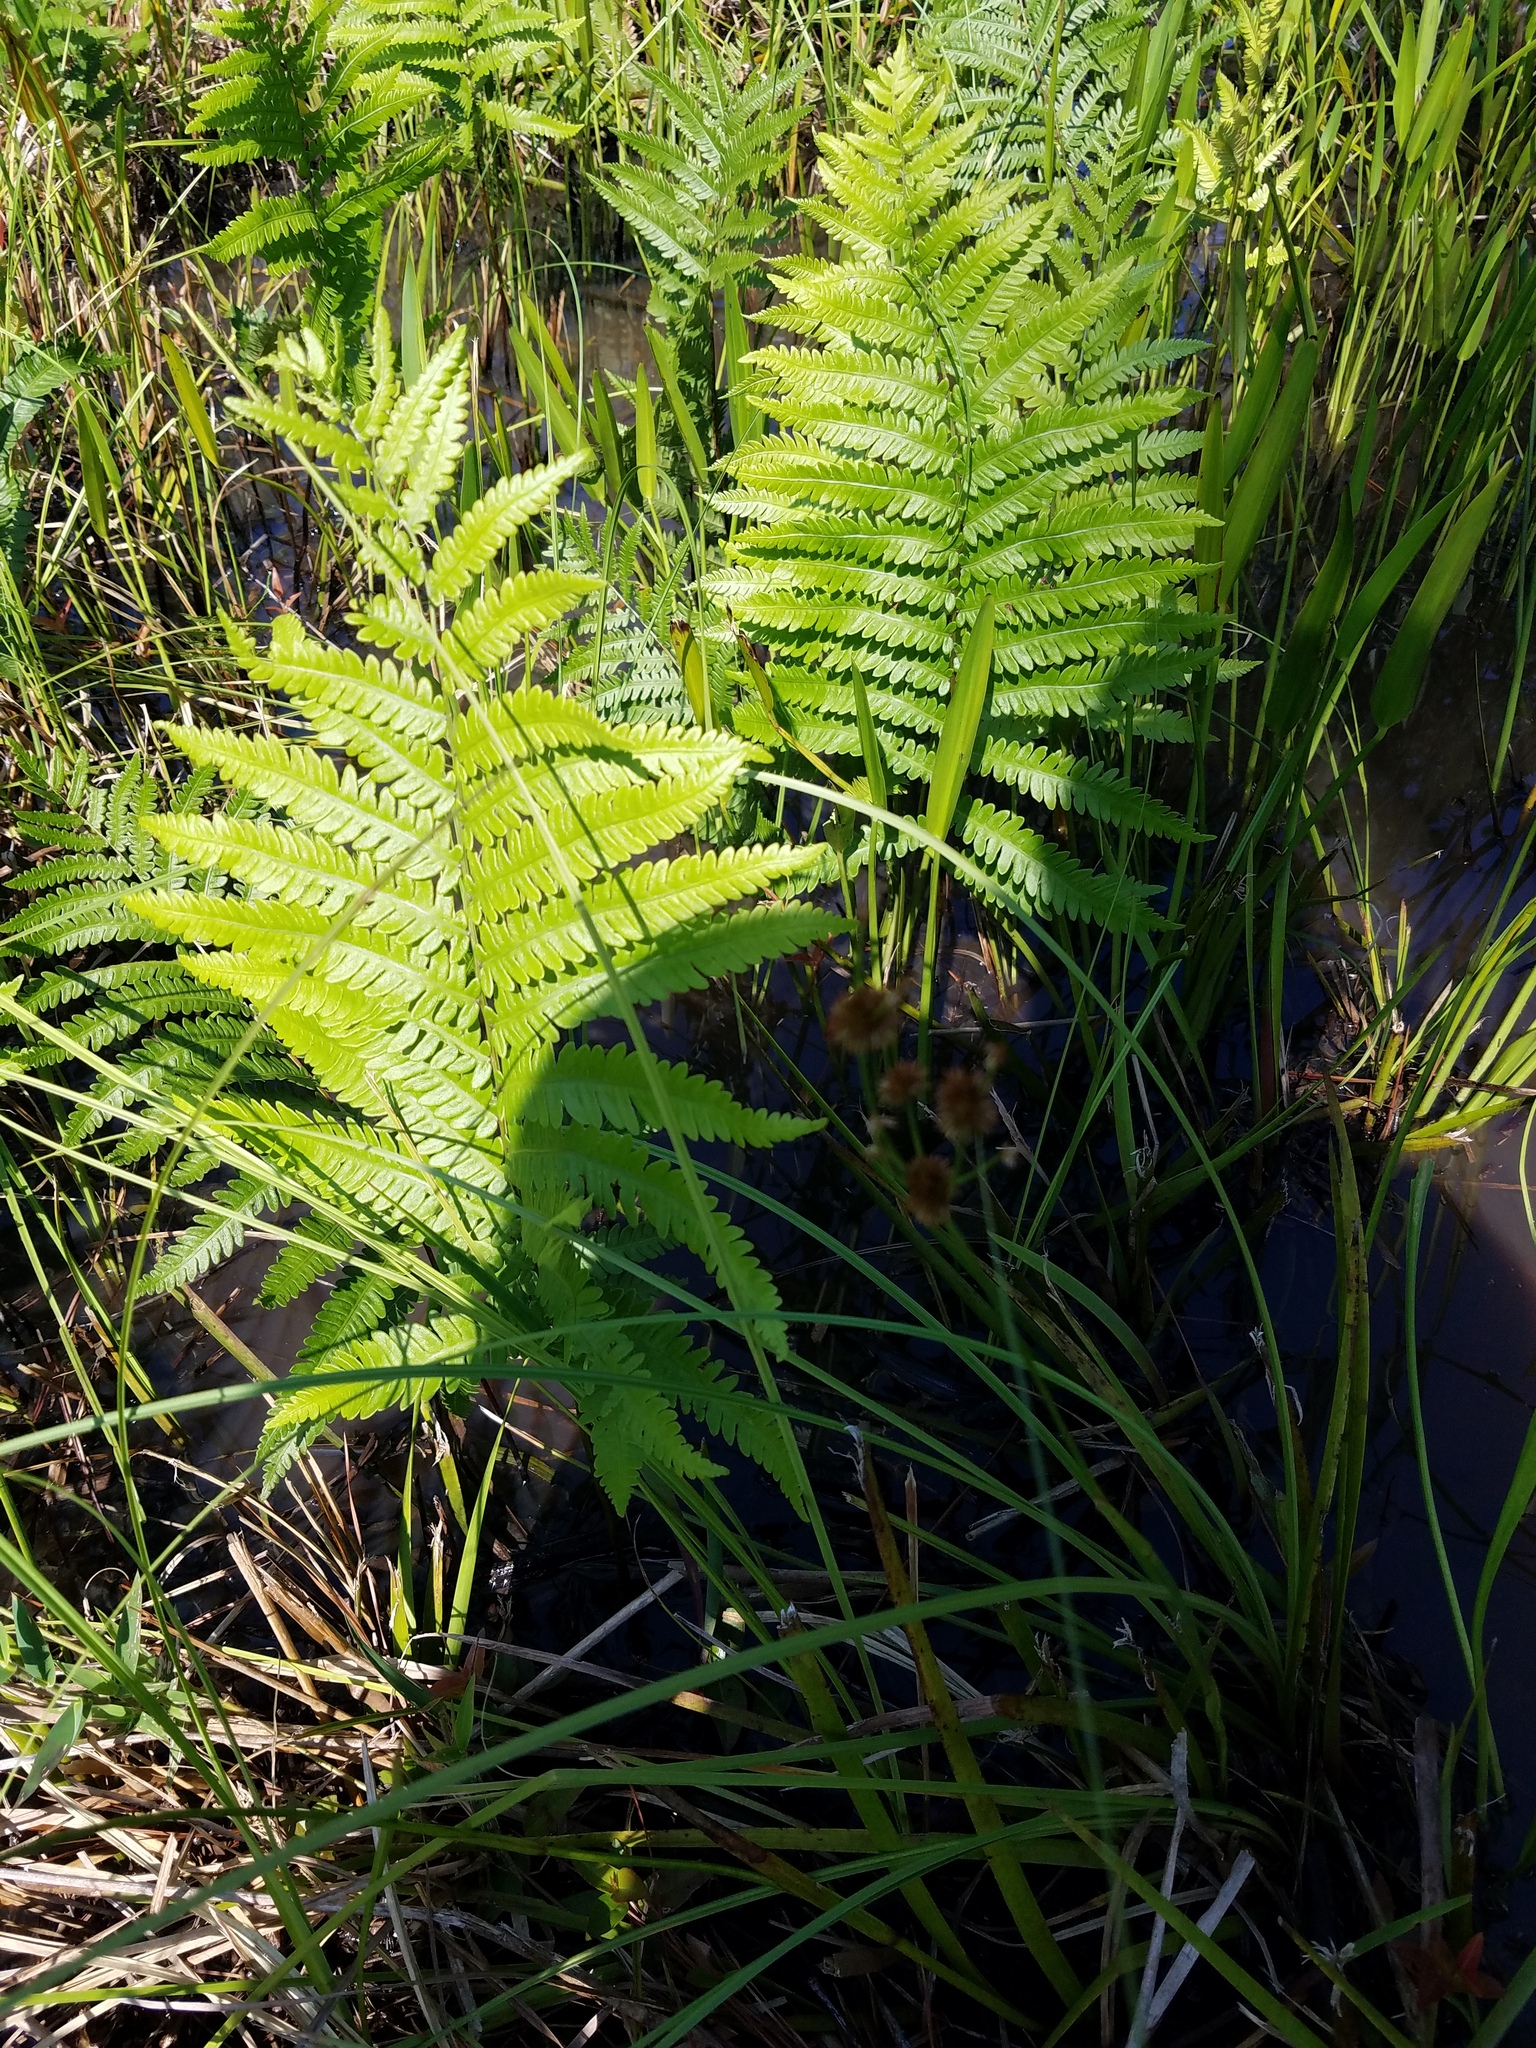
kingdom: Plantae
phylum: Tracheophyta
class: Polypodiopsida
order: Polypodiales
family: Blechnaceae
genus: Anchistea
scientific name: Anchistea virginica
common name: Virginia chain fern
